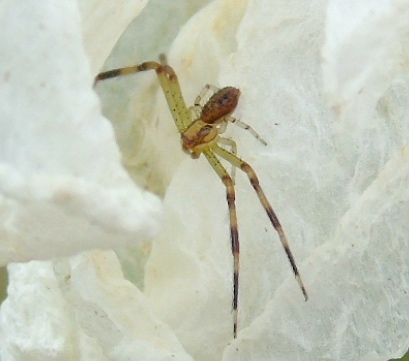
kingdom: Animalia
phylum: Arthropoda
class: Arachnida
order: Araneae
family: Thomisidae
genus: Mecaphesa
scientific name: Mecaphesa
